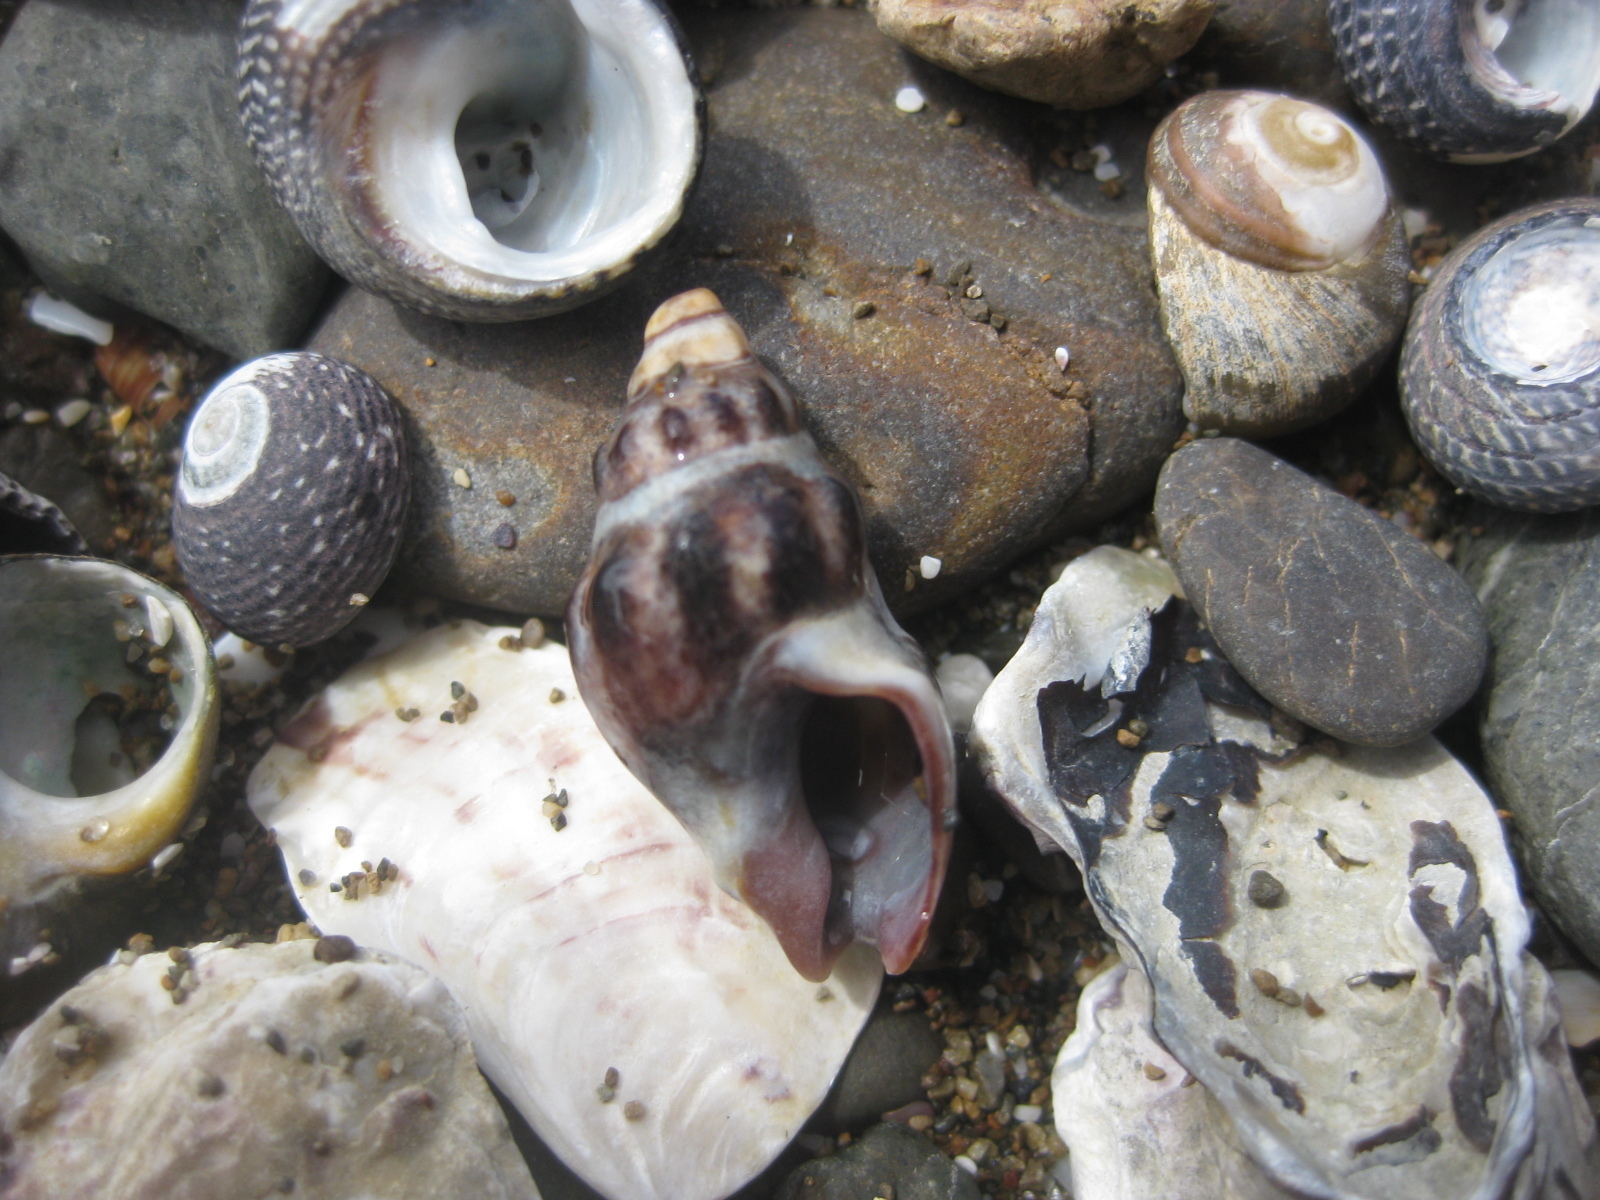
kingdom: Animalia
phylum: Mollusca
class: Gastropoda
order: Neogastropoda
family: Cominellidae
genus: Cominella
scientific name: Cominella glandiformis
